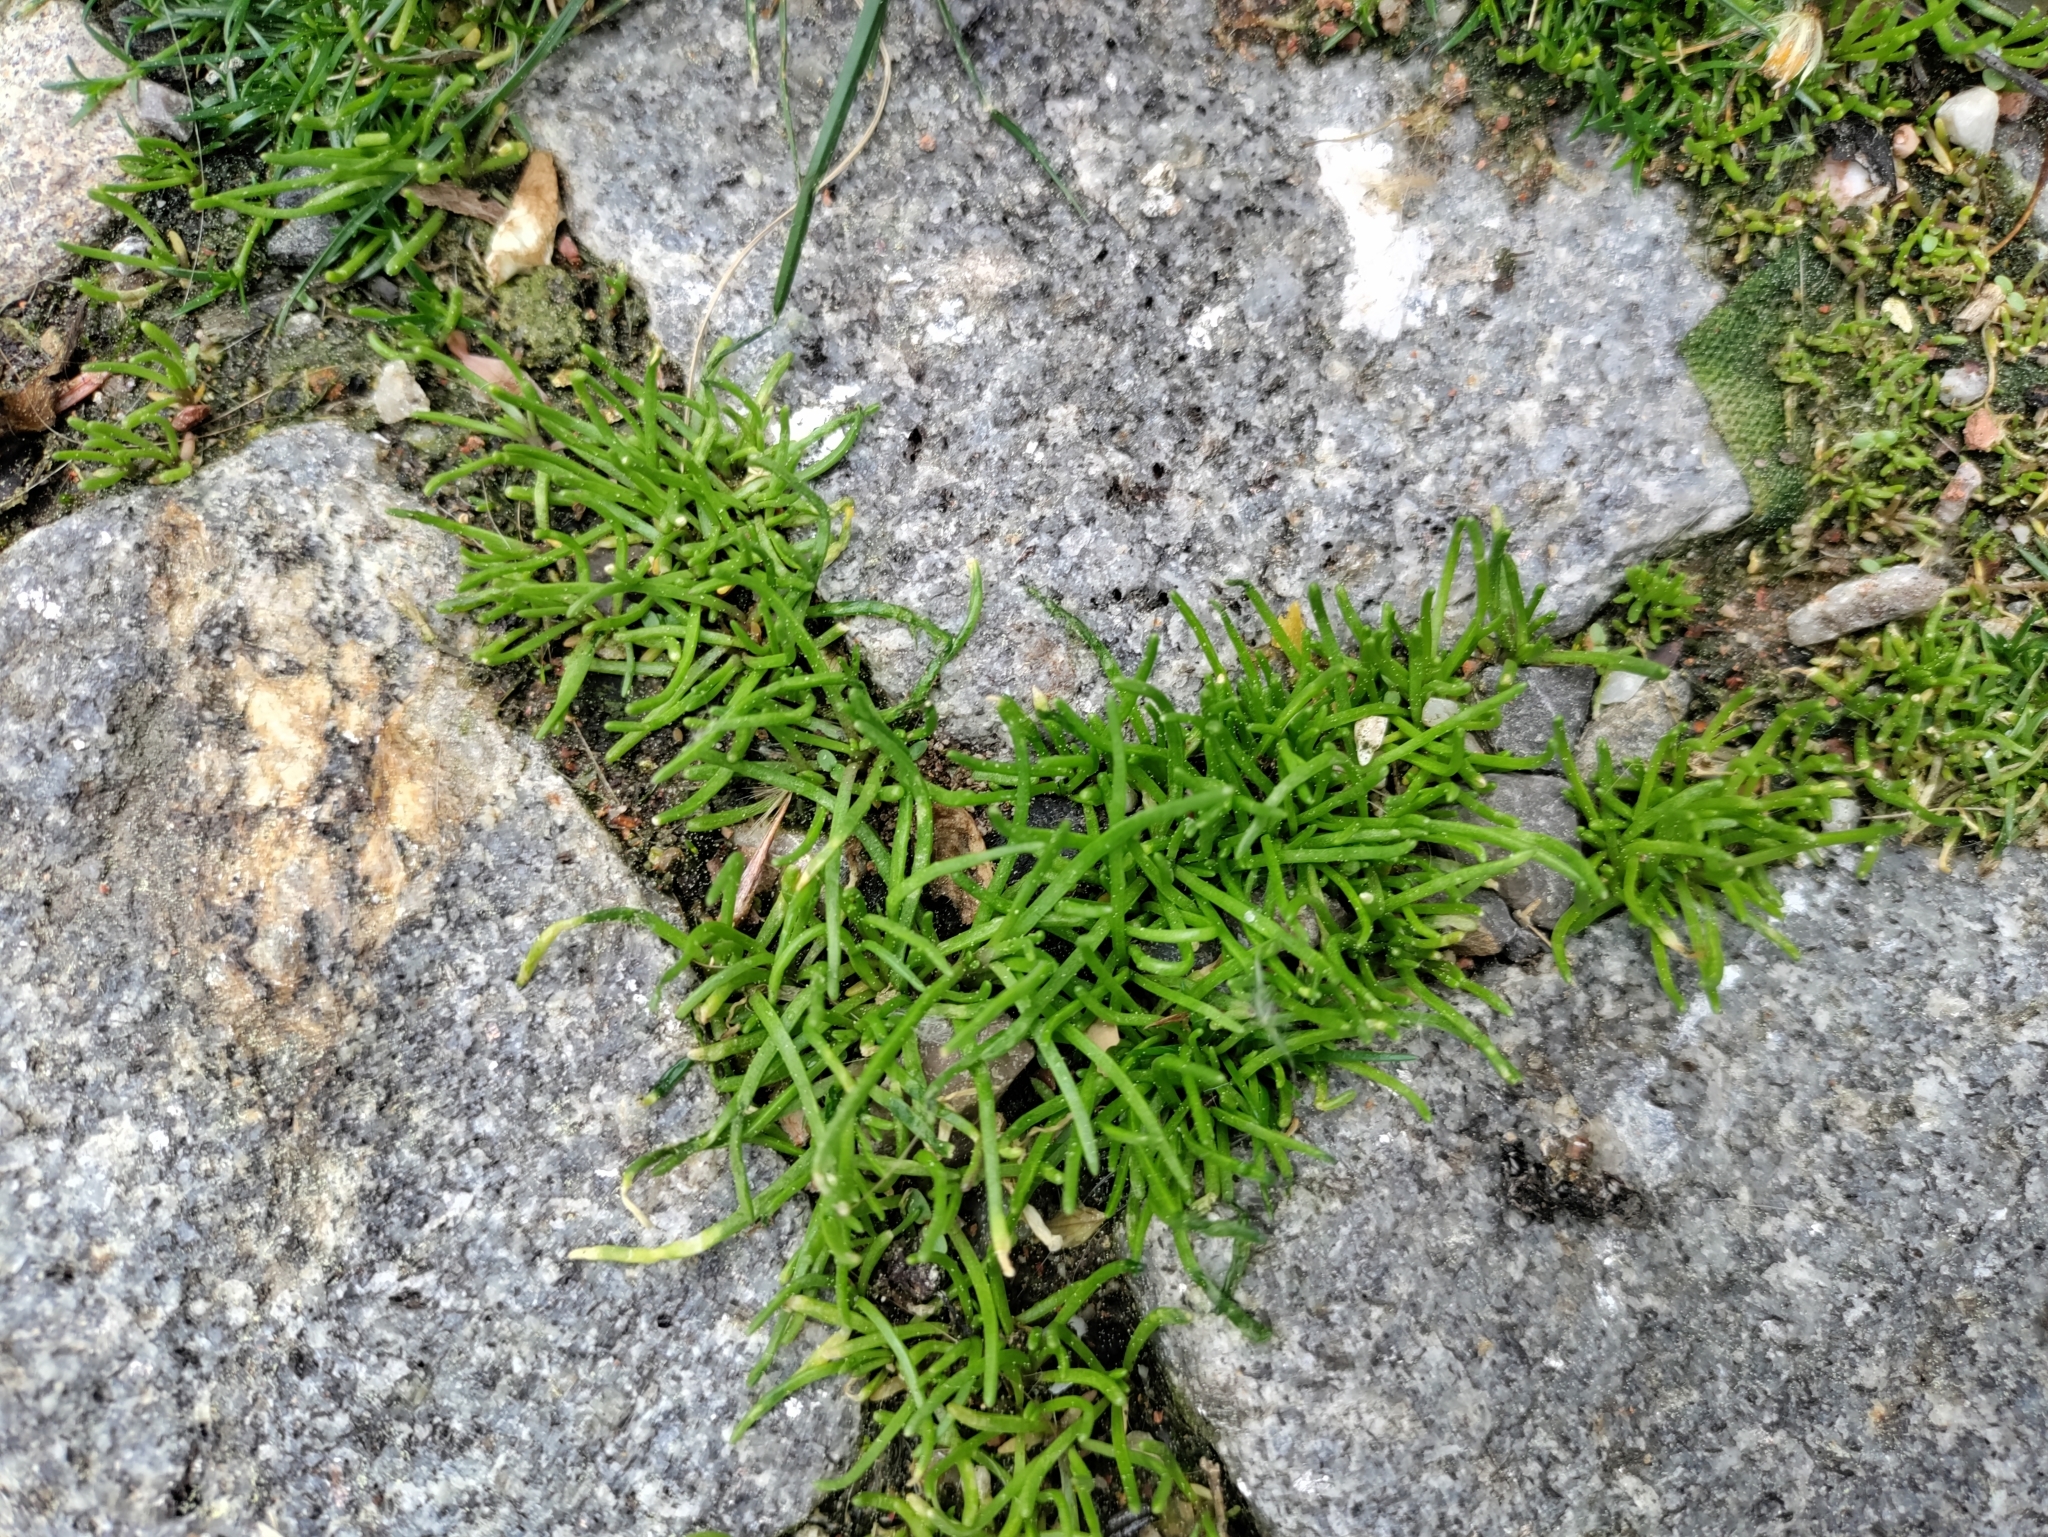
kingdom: Plantae
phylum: Tracheophyta
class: Magnoliopsida
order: Caryophyllales
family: Caryophyllaceae
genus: Sagina
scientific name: Sagina procumbens
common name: Procumbent pearlwort
